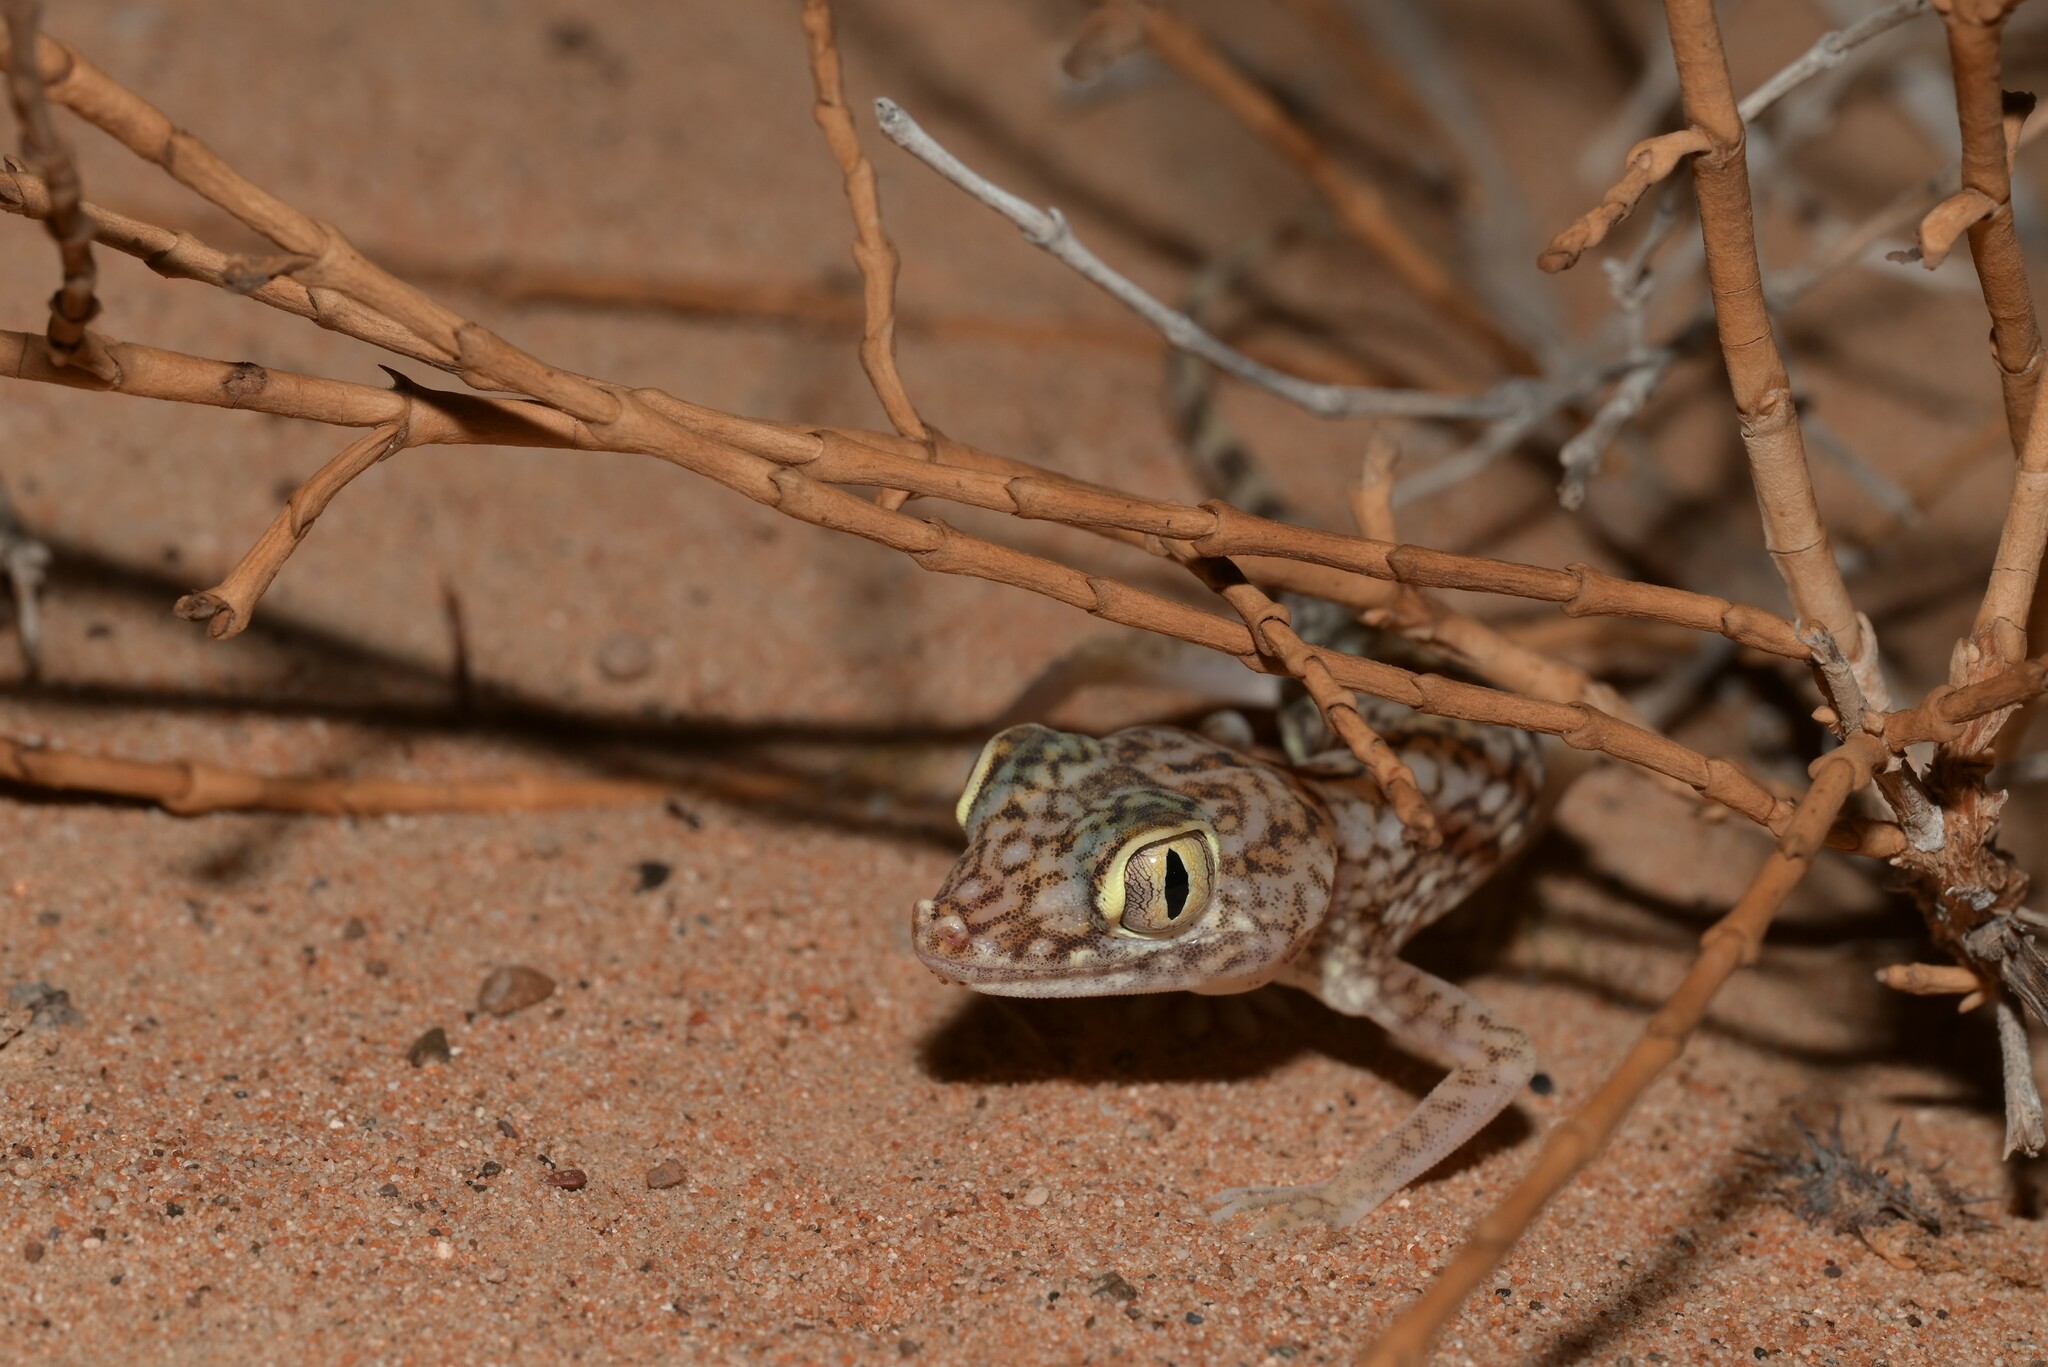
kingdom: Animalia
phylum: Chordata
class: Squamata
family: Gekkonidae
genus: Stenodactylus
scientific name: Stenodactylus doriae
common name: Dune sand gecko
